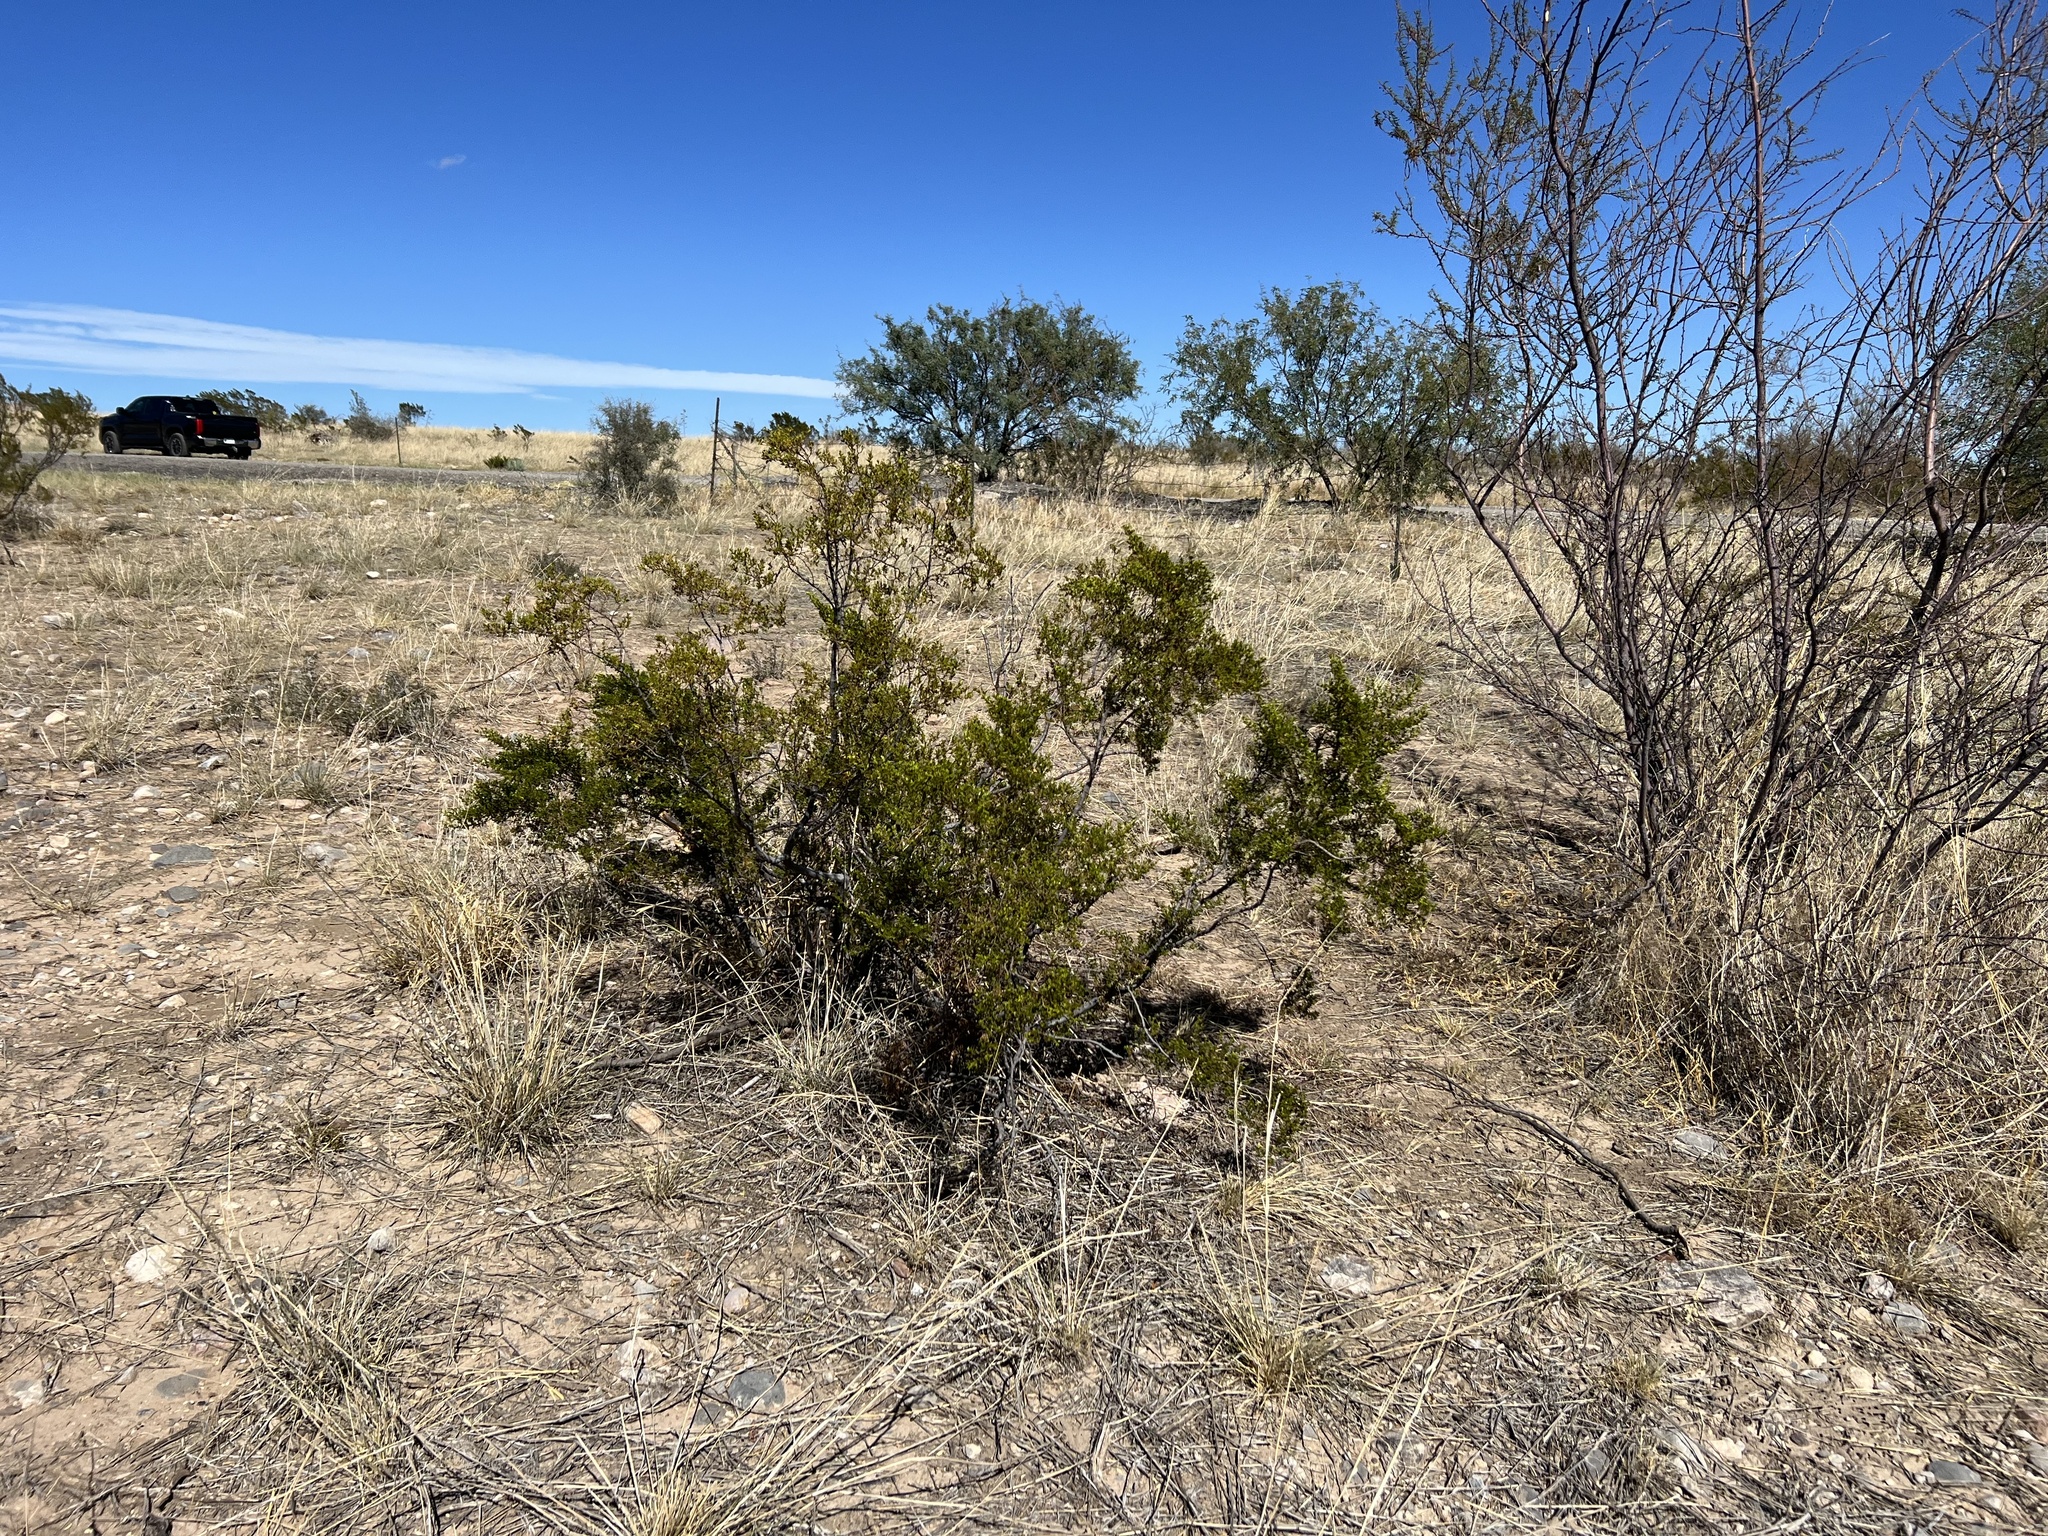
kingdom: Plantae
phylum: Tracheophyta
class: Magnoliopsida
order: Zygophyllales
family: Zygophyllaceae
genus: Larrea
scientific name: Larrea tridentata
